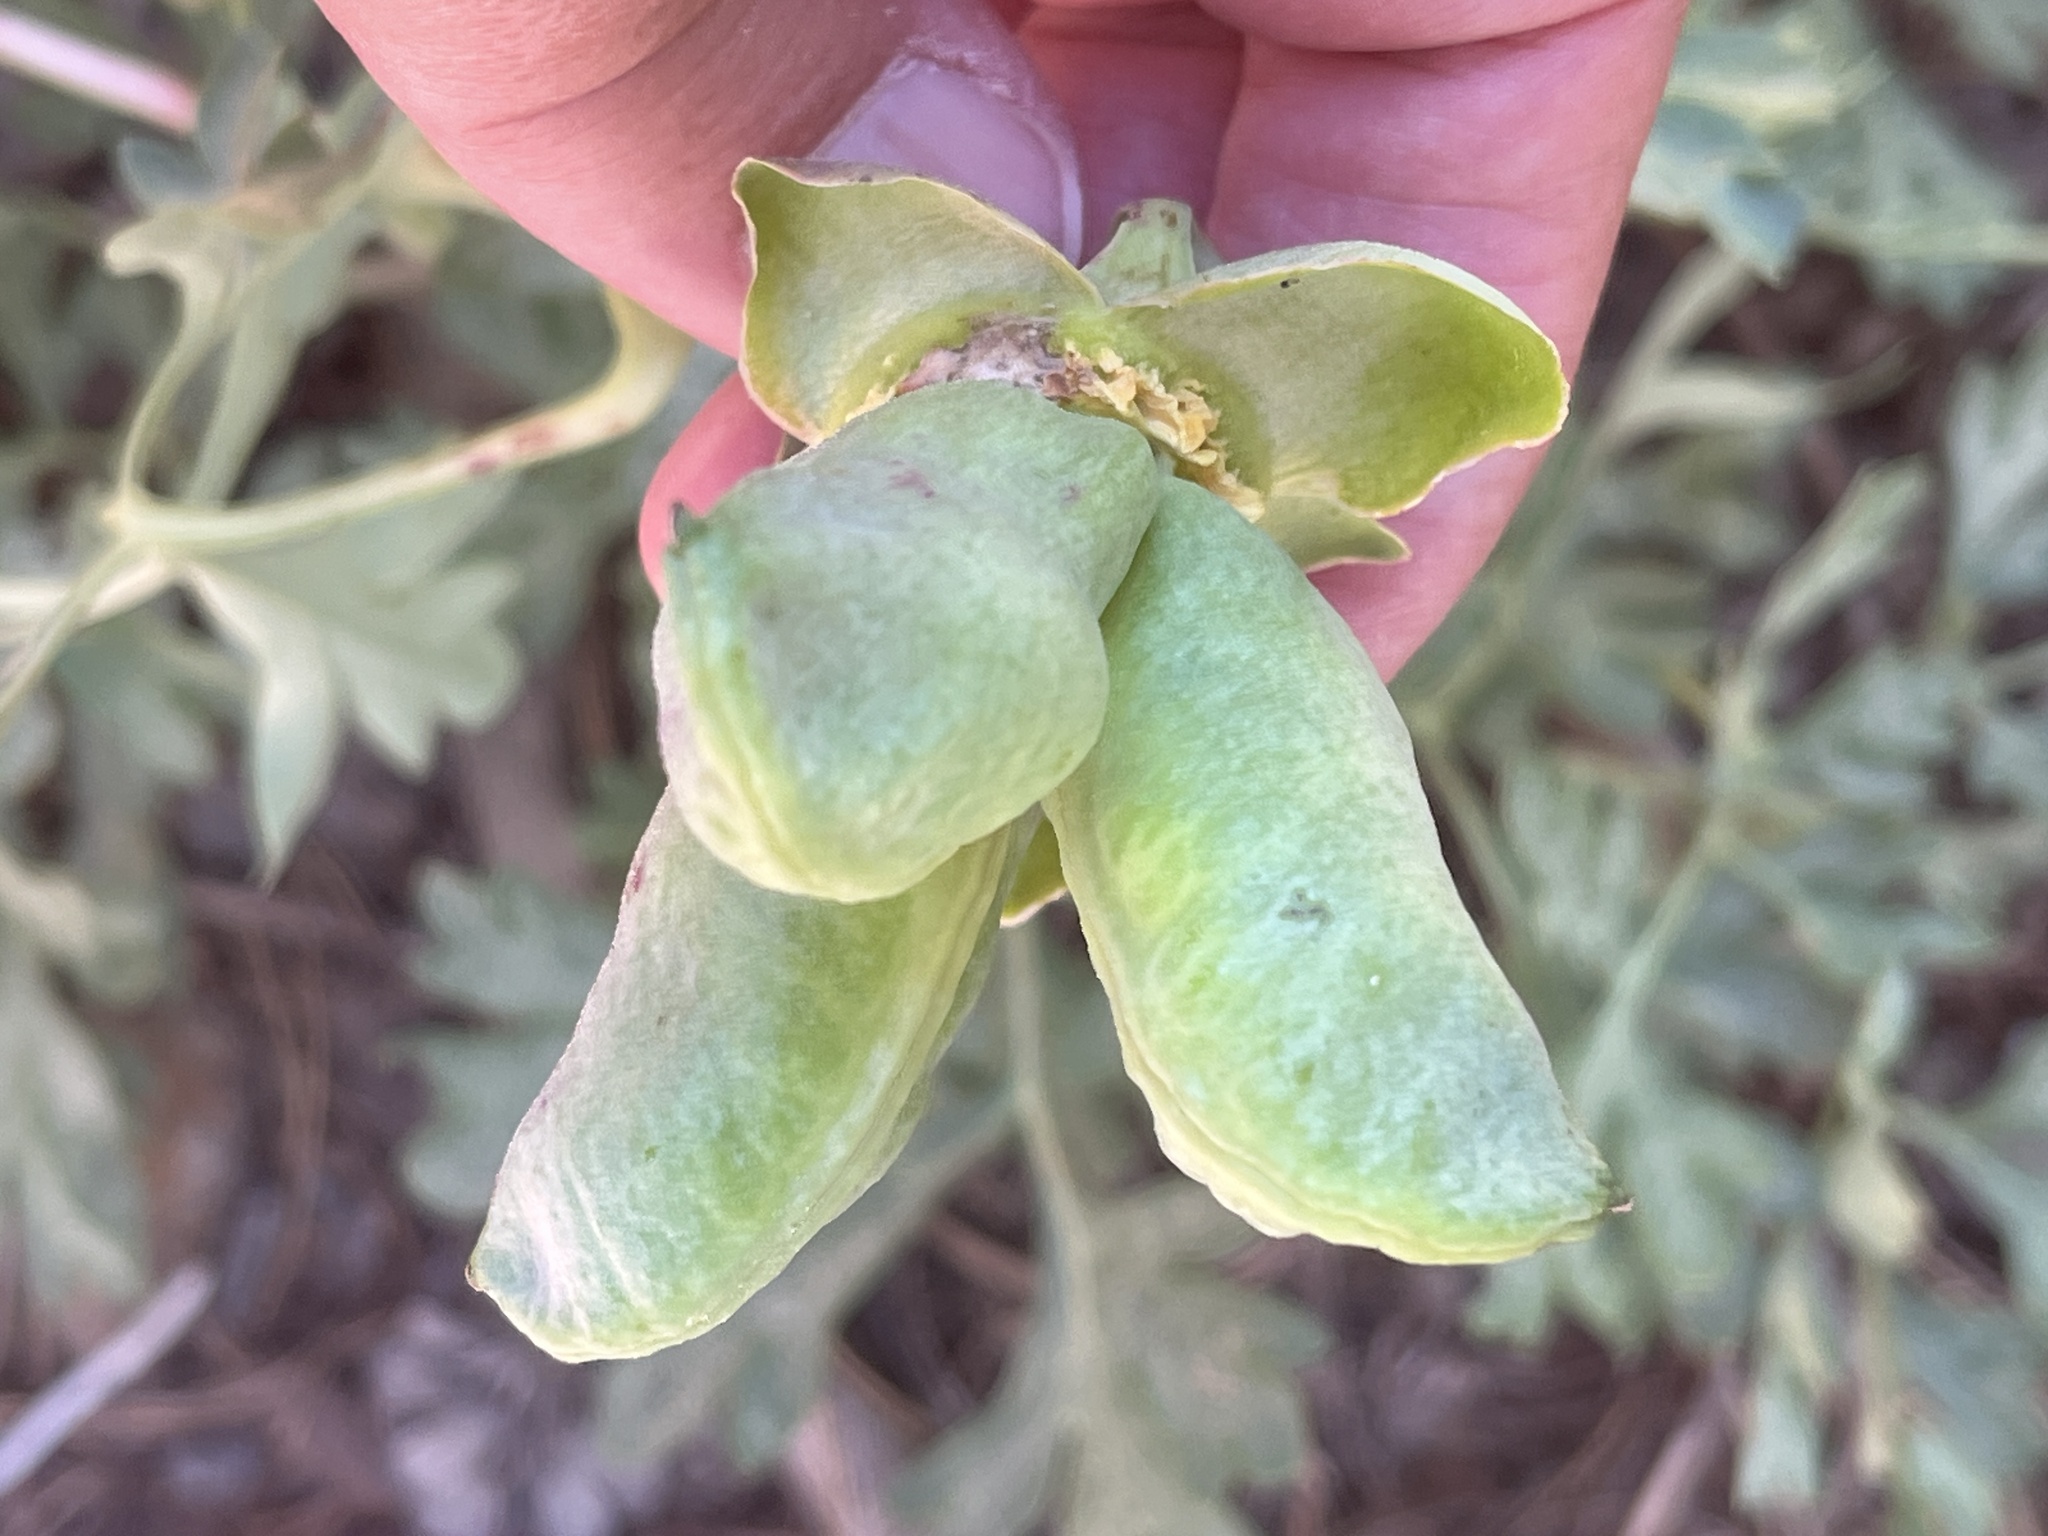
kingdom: Plantae
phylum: Tracheophyta
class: Magnoliopsida
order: Saxifragales
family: Paeoniaceae
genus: Paeonia
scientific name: Paeonia brownii
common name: Brown's peony
